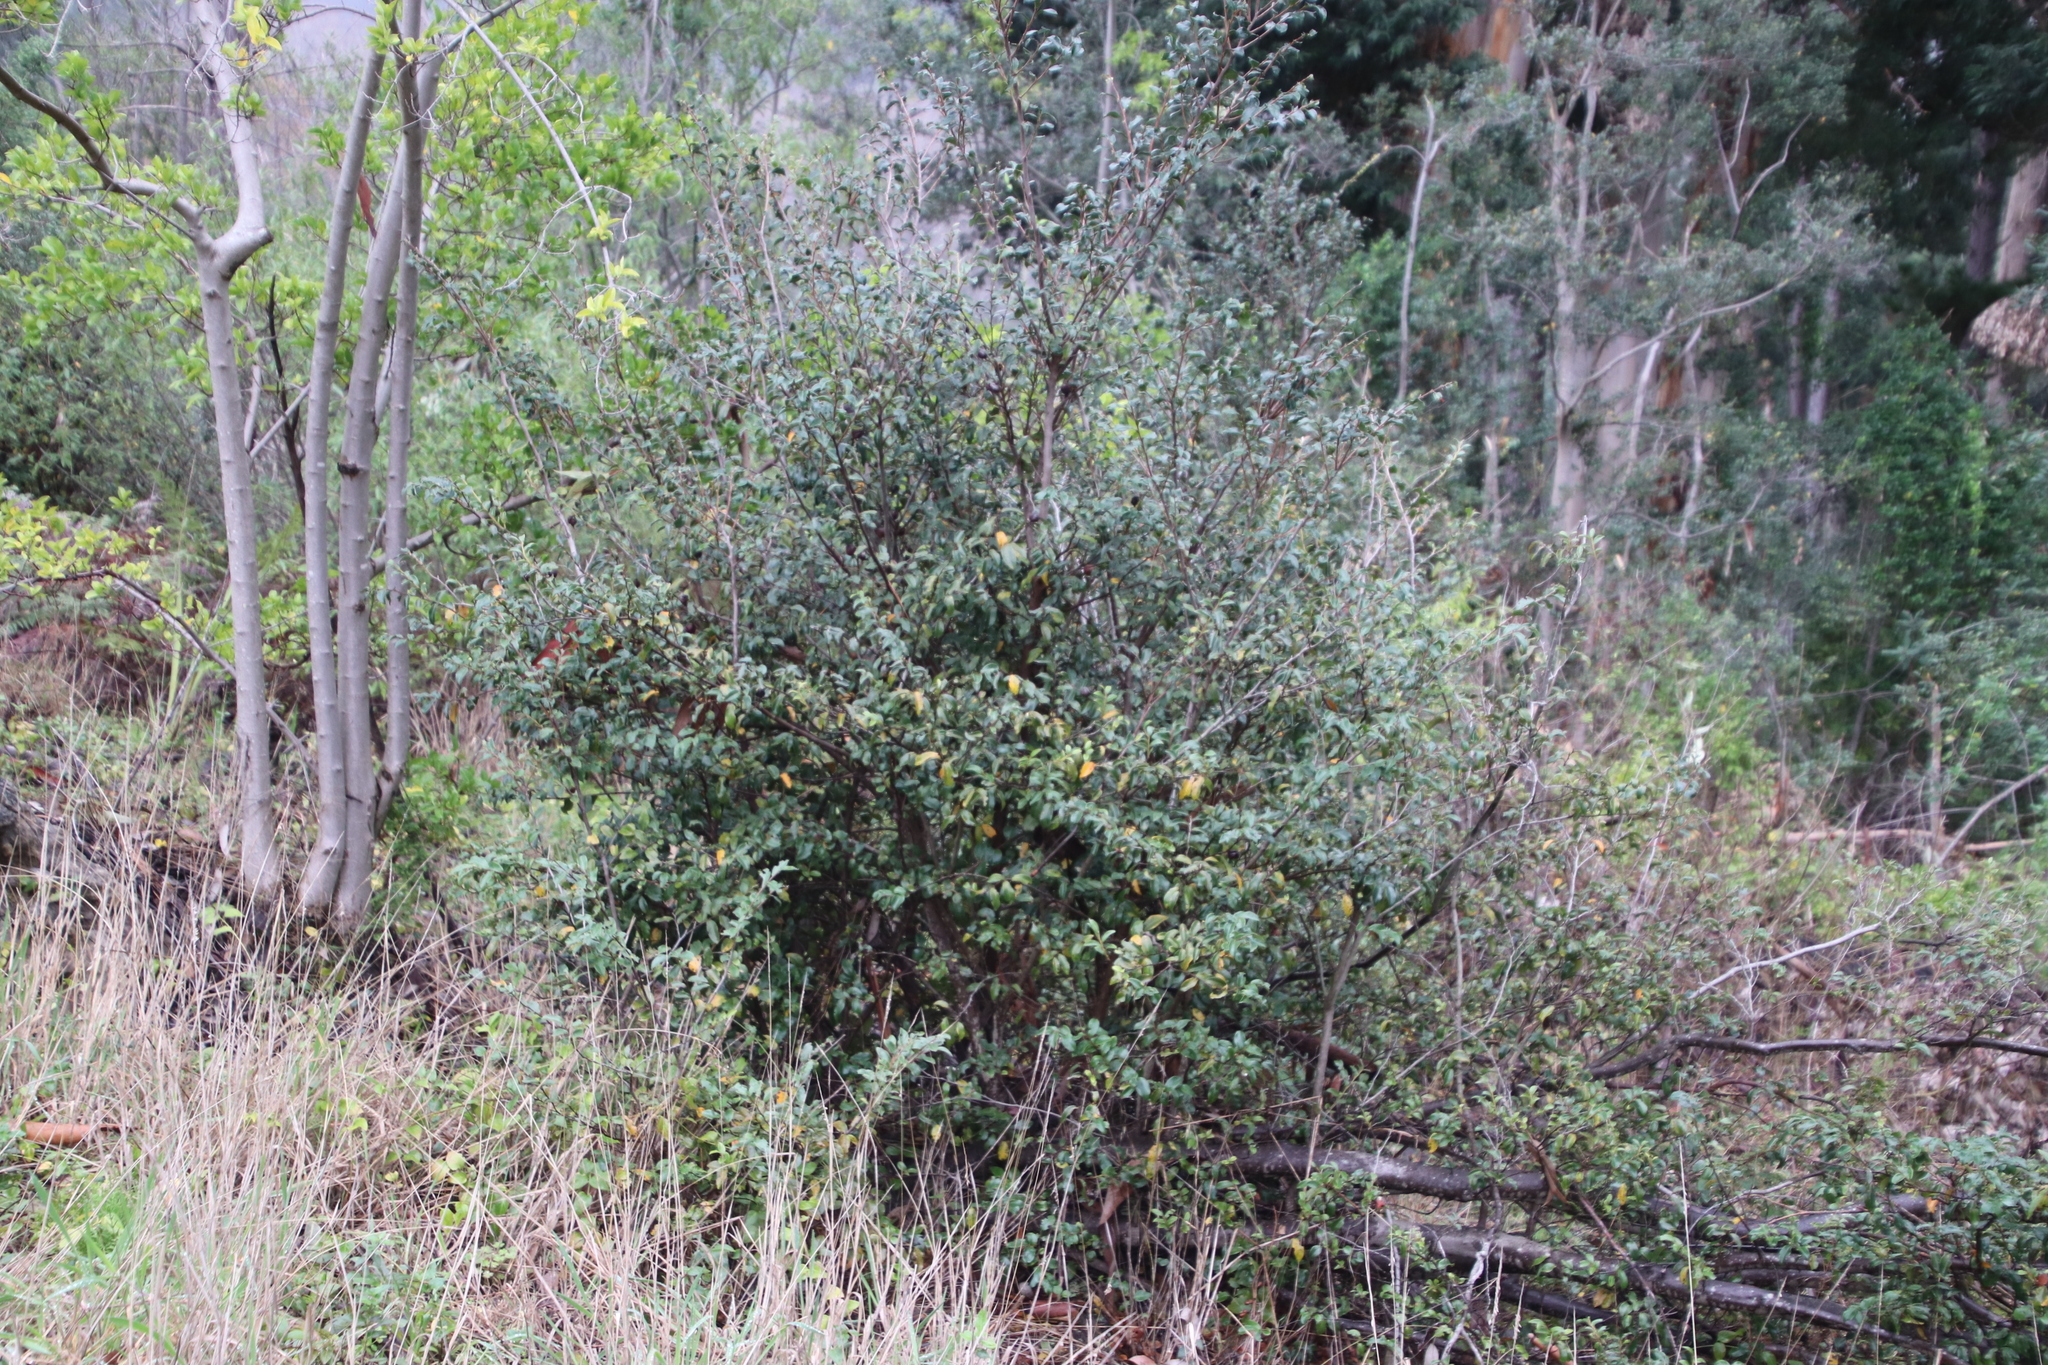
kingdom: Plantae
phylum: Tracheophyta
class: Magnoliopsida
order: Ericales
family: Ebenaceae
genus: Diospyros
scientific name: Diospyros whyteana
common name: Bladder-nut
